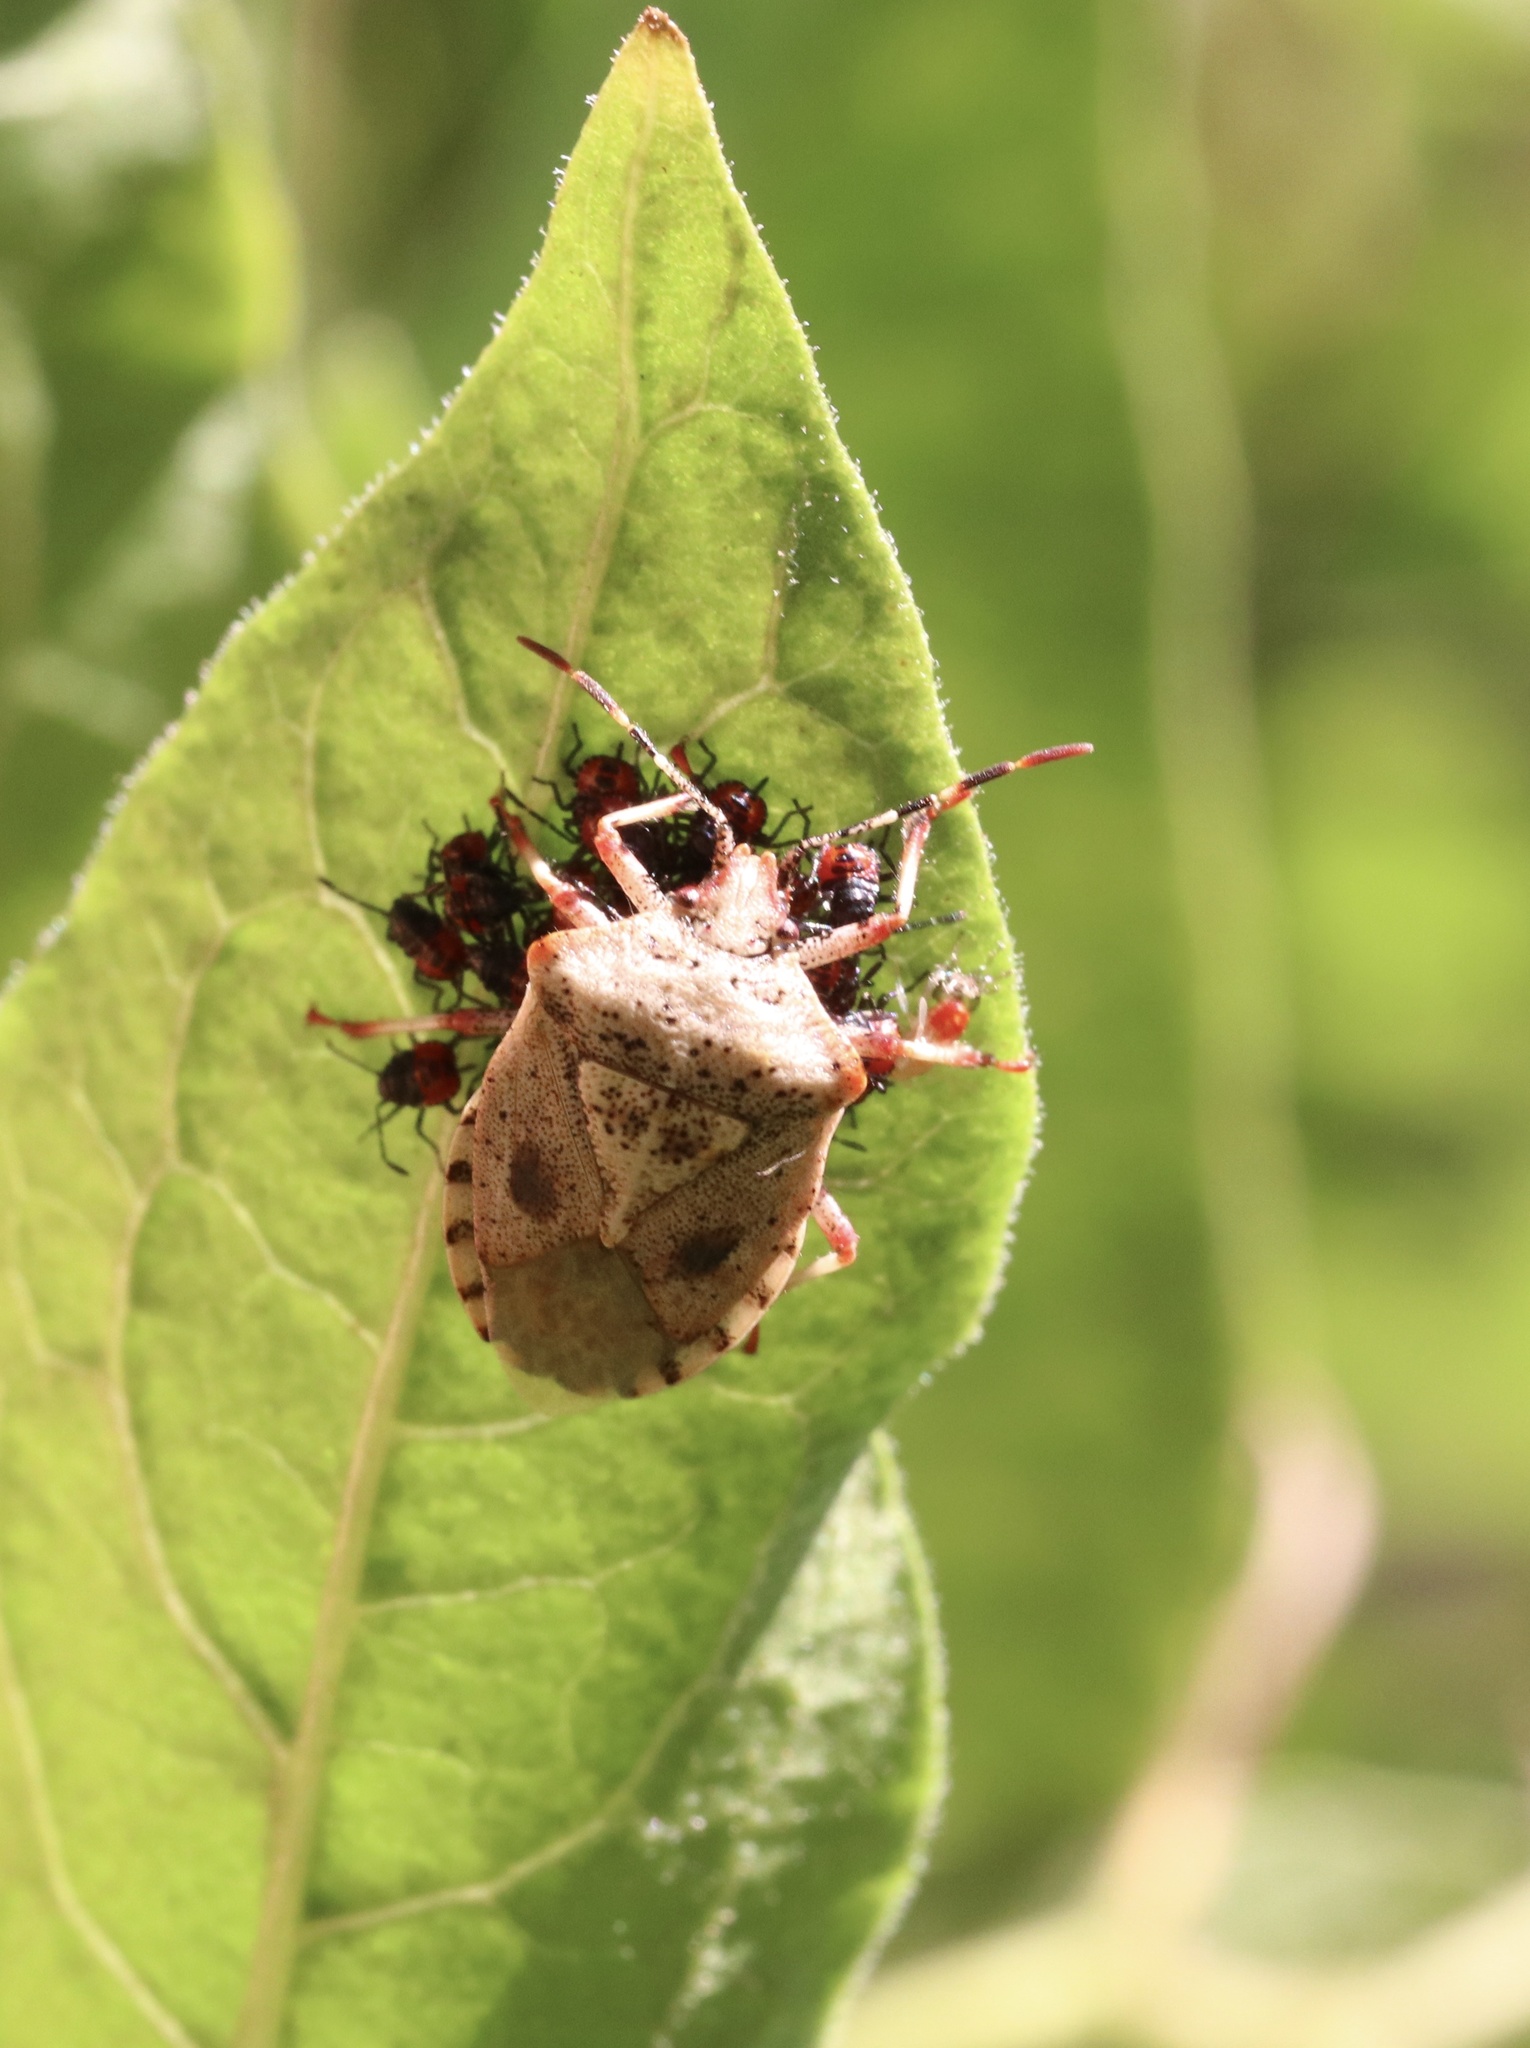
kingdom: Animalia
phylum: Arthropoda
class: Insecta
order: Hemiptera
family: Acanthosomatidae
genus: Phorbanta
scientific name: Phorbanta variabilis
